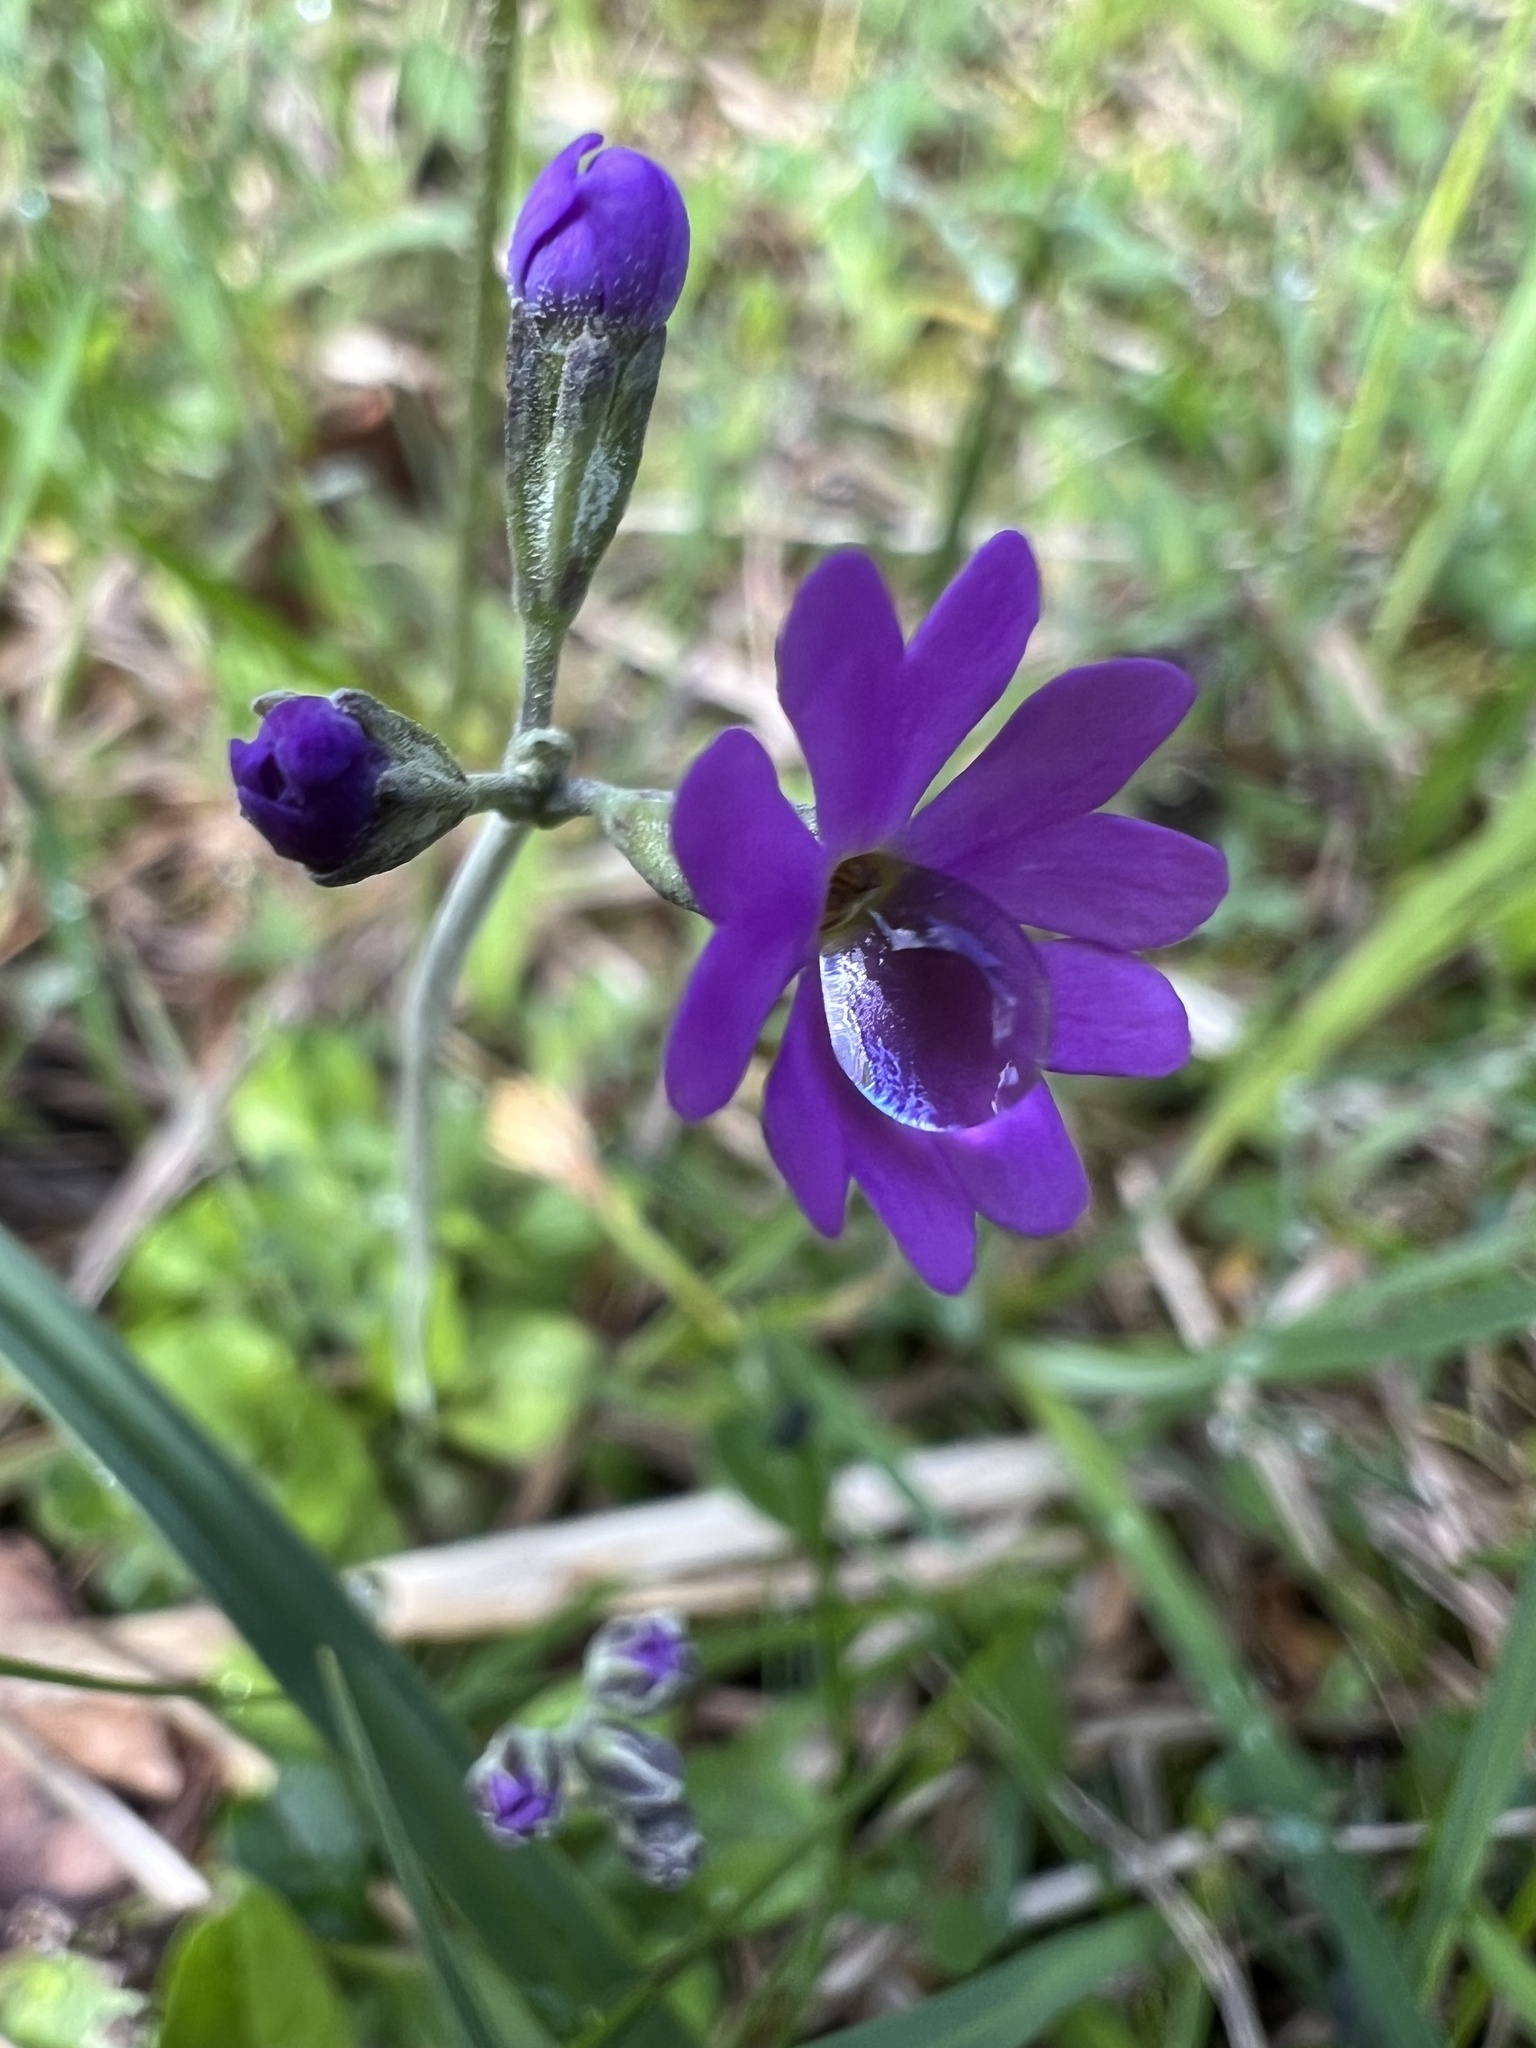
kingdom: Plantae
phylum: Tracheophyta
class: Magnoliopsida
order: Ericales
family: Primulaceae
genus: Primula
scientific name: Primula farinosa
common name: Bird's-eye primrose
